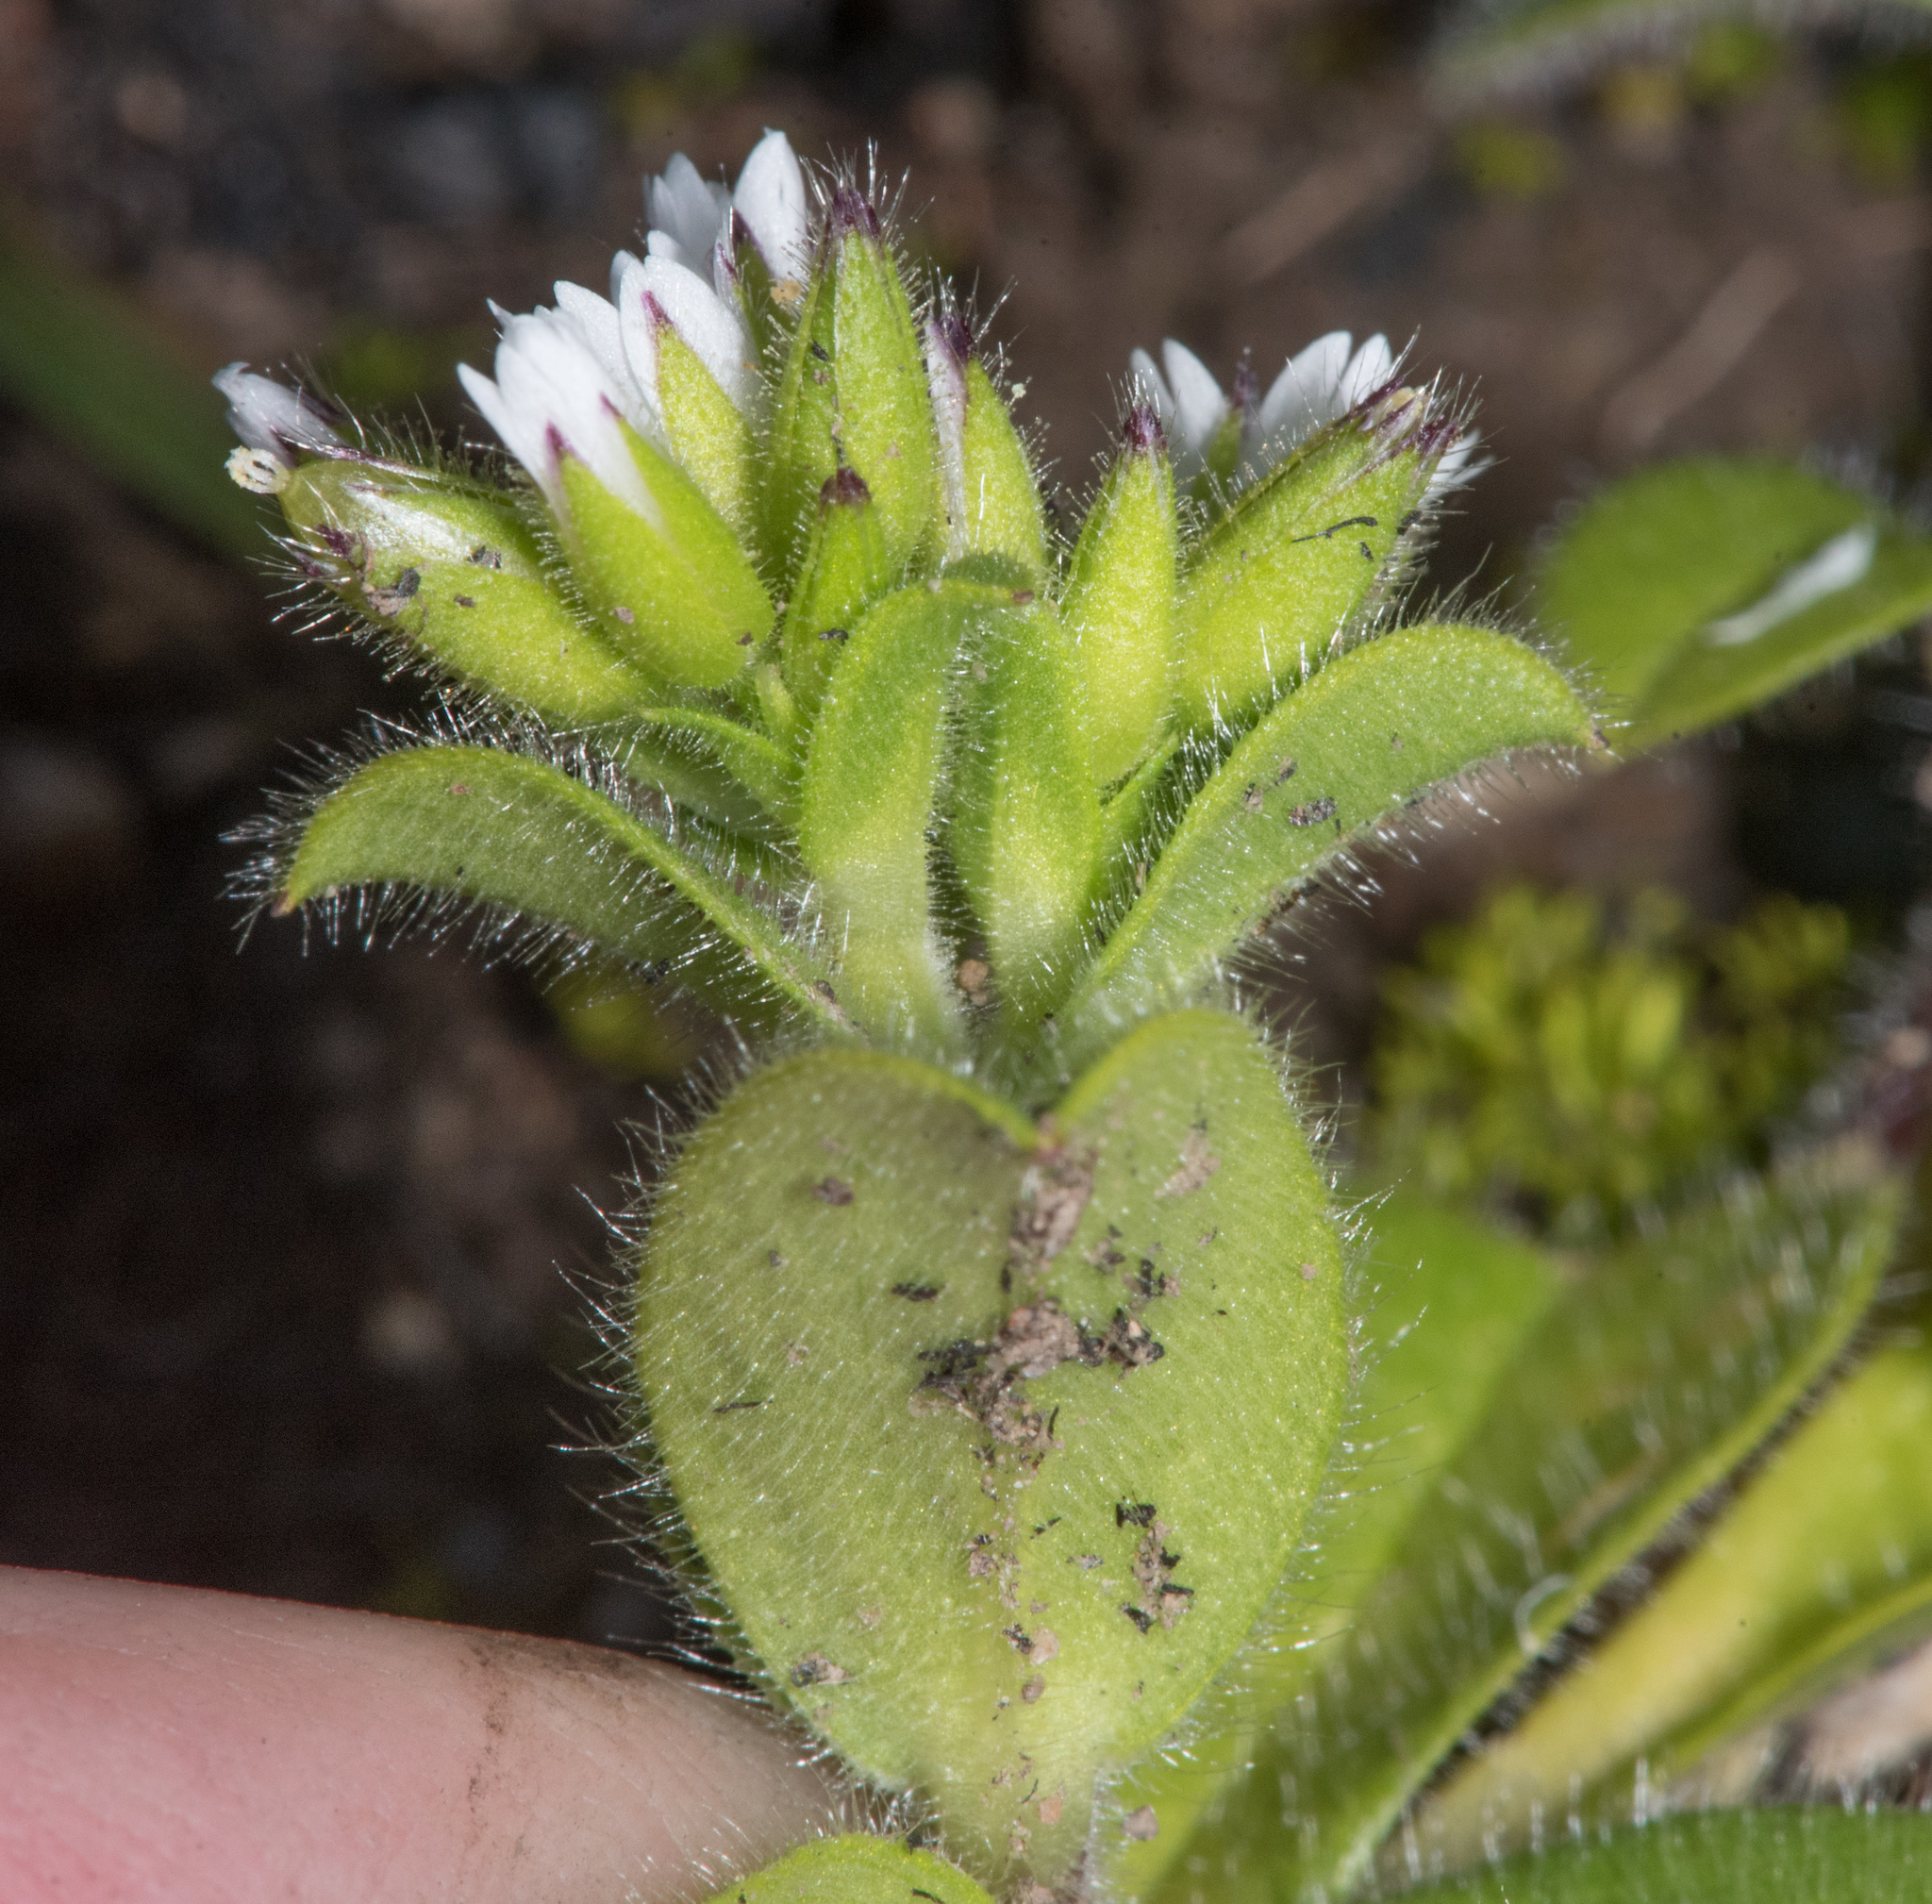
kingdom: Plantae
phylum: Tracheophyta
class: Magnoliopsida
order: Caryophyllales
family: Caryophyllaceae
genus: Cerastium
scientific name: Cerastium glomeratum
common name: Sticky chickweed
